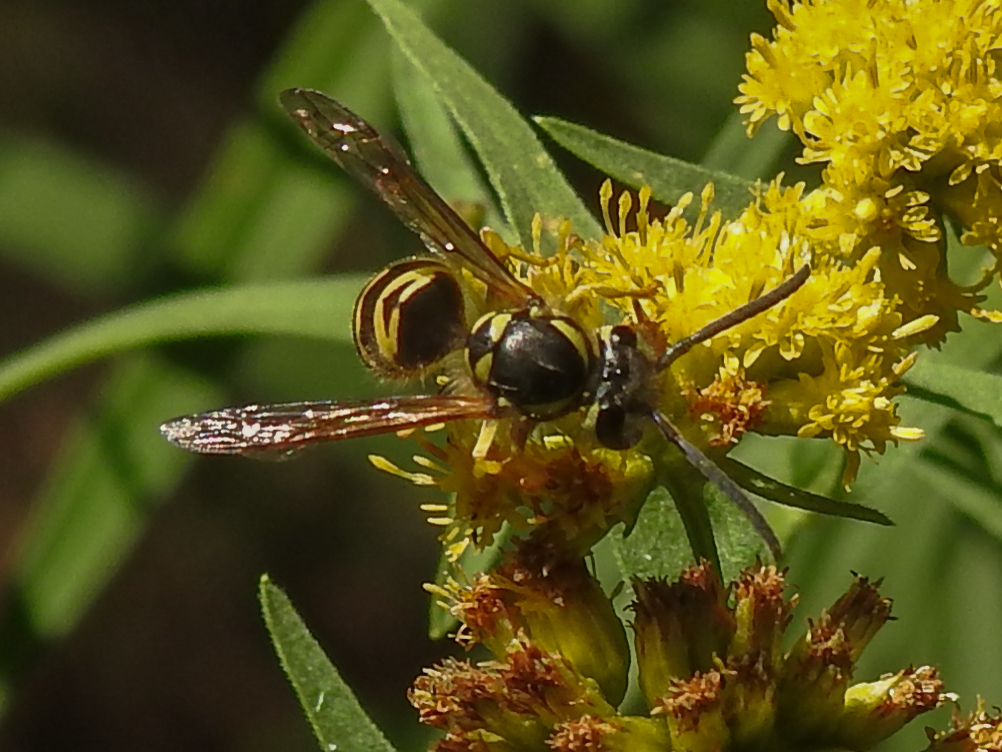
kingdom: Animalia
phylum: Arthropoda
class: Insecta
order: Hymenoptera
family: Vespidae
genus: Vespula
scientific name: Vespula maculifrons
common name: Eastern yellowjacket
